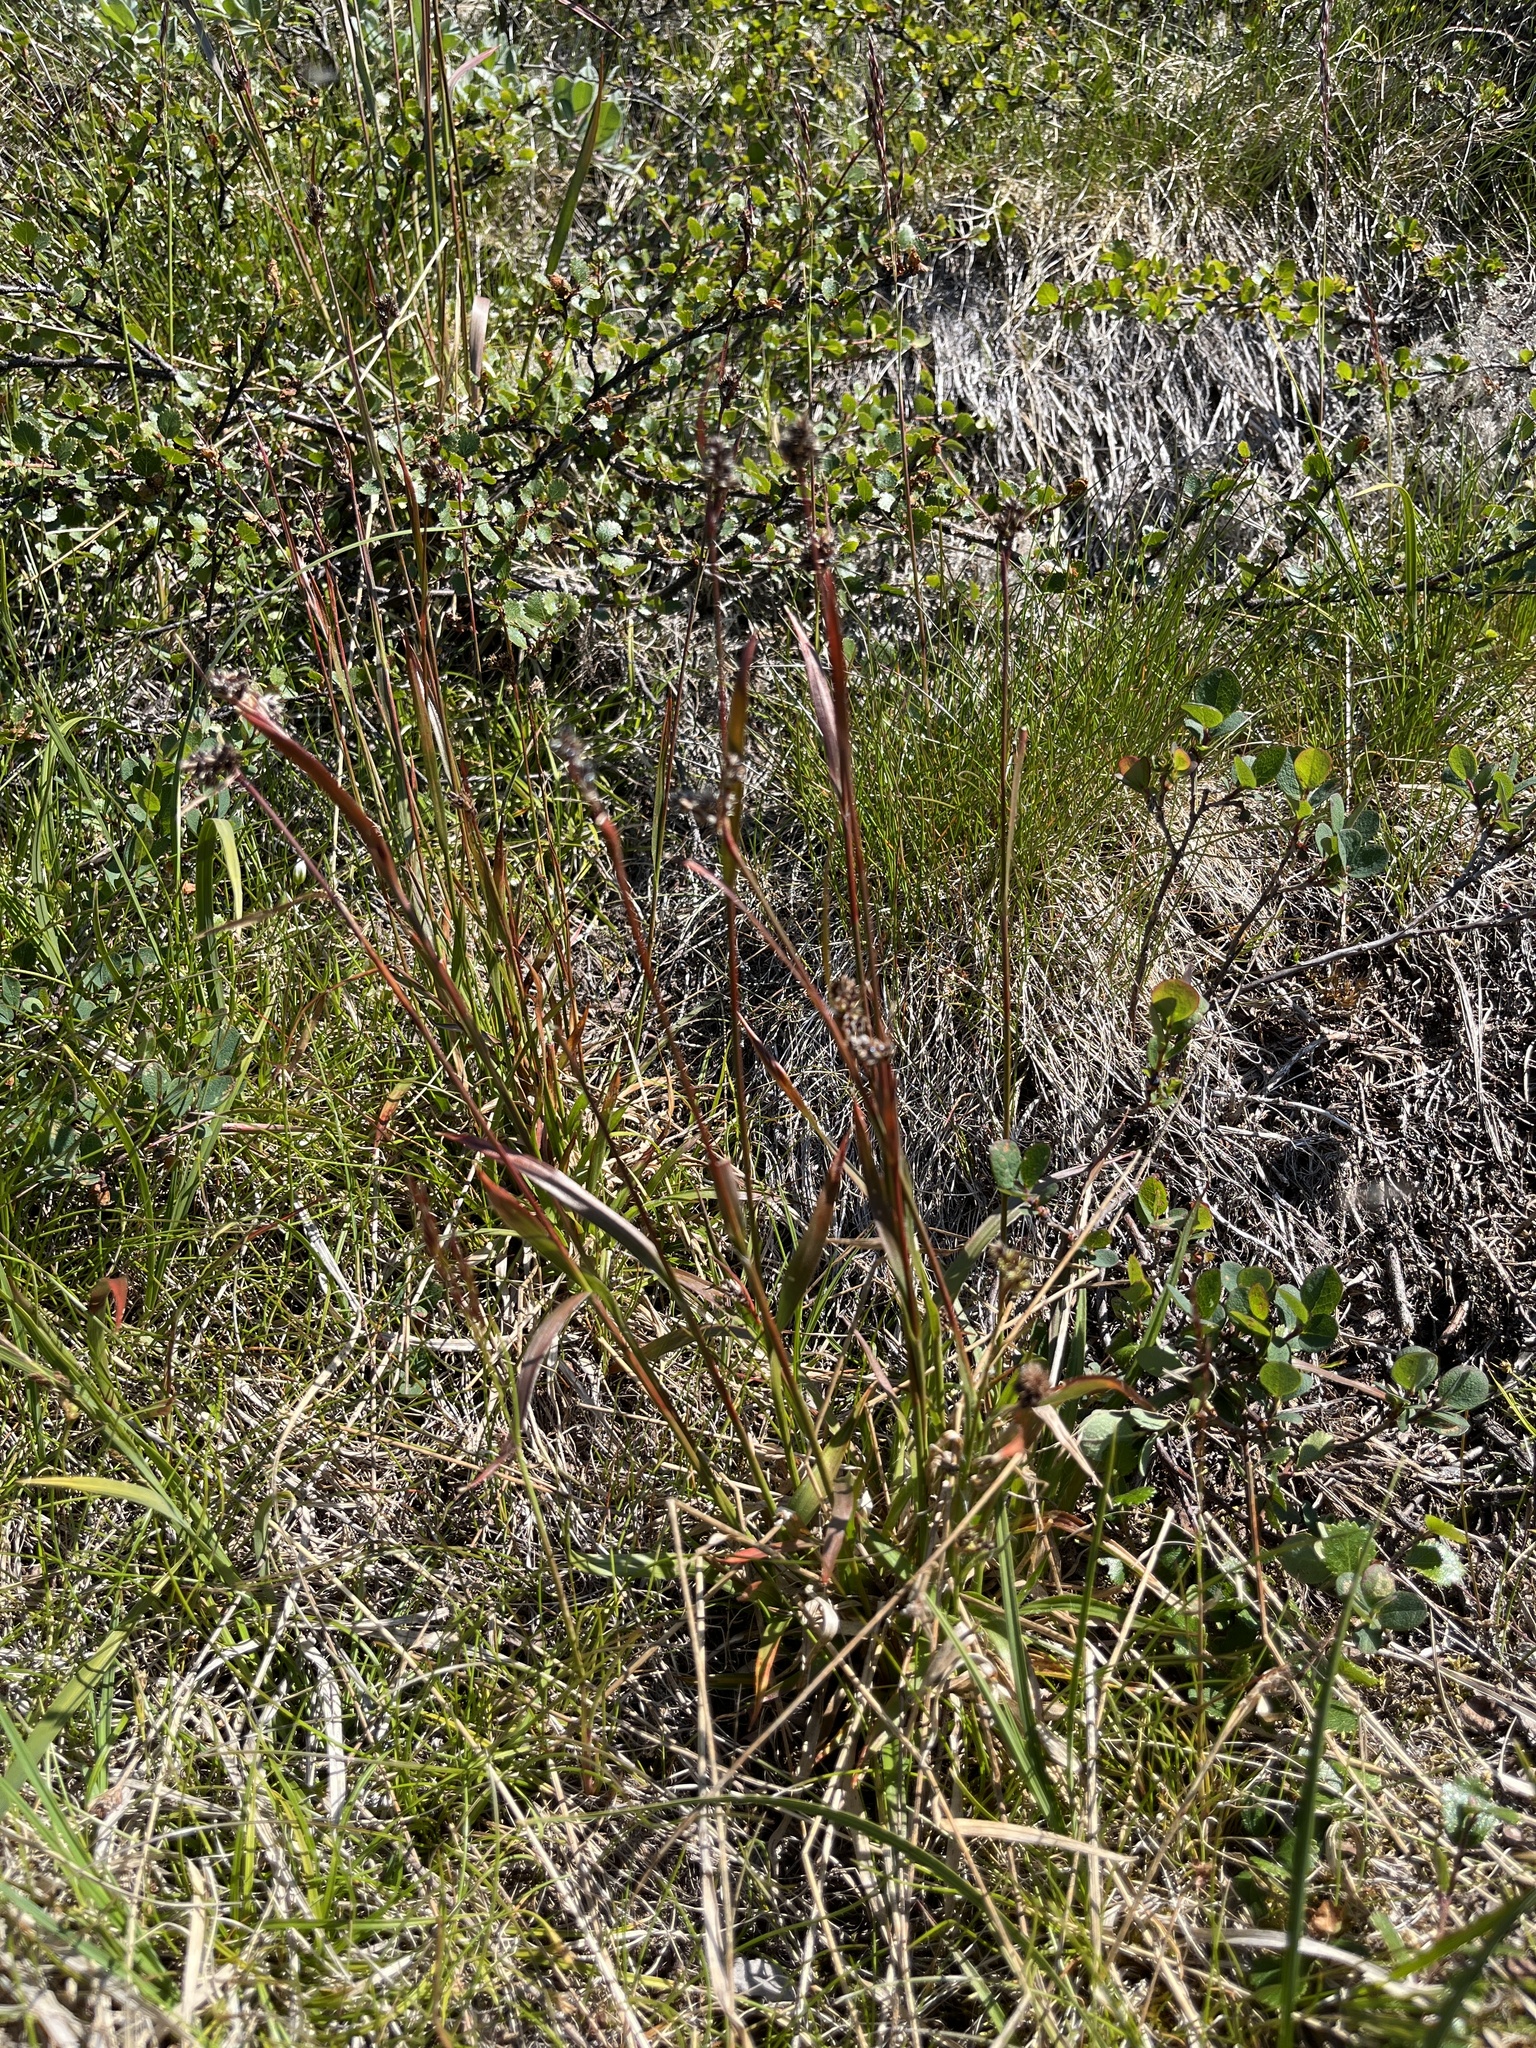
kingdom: Plantae
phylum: Tracheophyta
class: Liliopsida
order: Poales
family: Juncaceae
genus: Luzula
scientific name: Luzula multiflora
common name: Heath wood-rush
